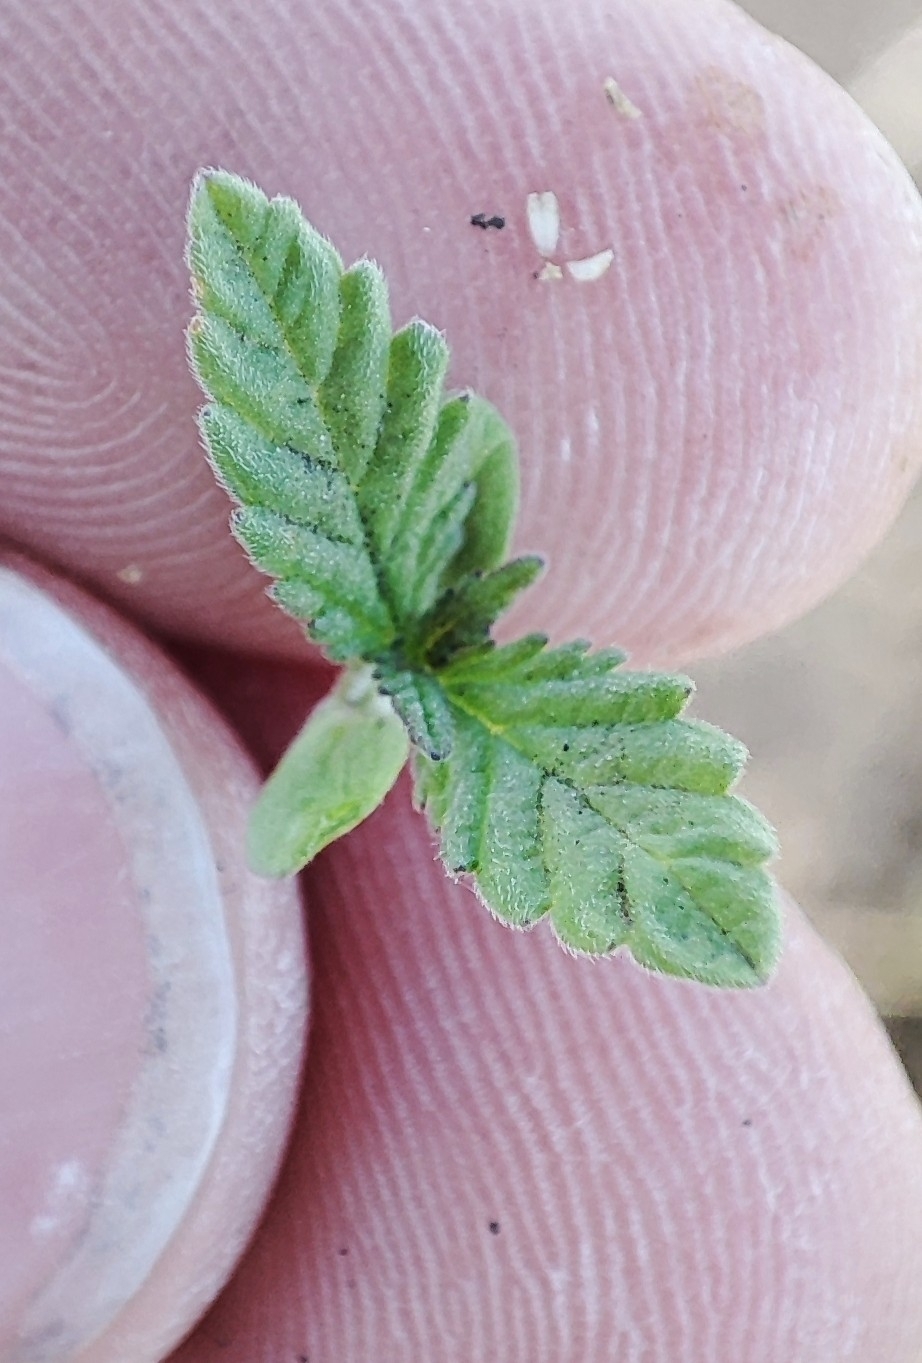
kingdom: Plantae
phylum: Tracheophyta
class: Magnoliopsida
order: Rosales
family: Cannabaceae
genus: Cannabis
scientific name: Cannabis sativa
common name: Hemp
